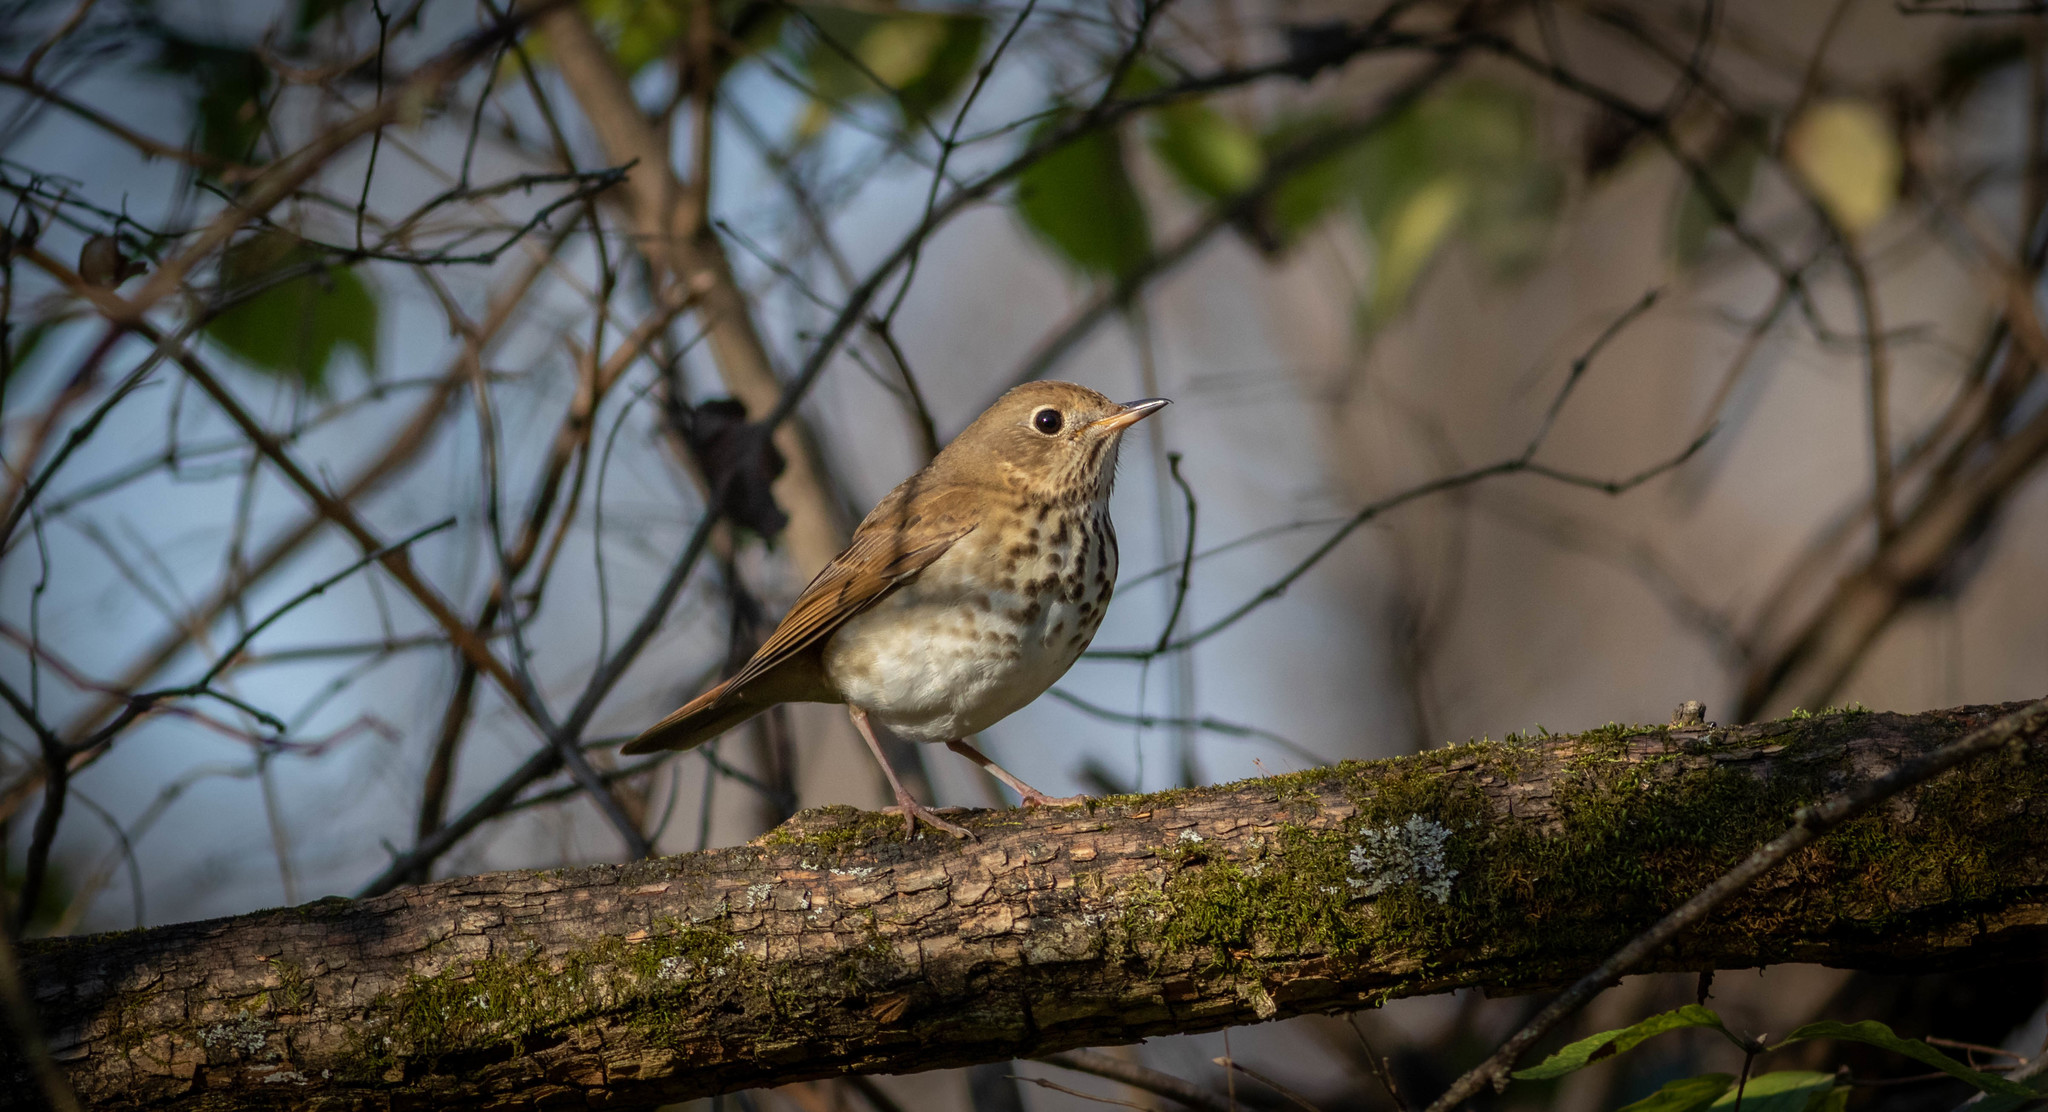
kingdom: Animalia
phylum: Chordata
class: Aves
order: Passeriformes
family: Turdidae
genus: Catharus
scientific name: Catharus guttatus
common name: Hermit thrush
